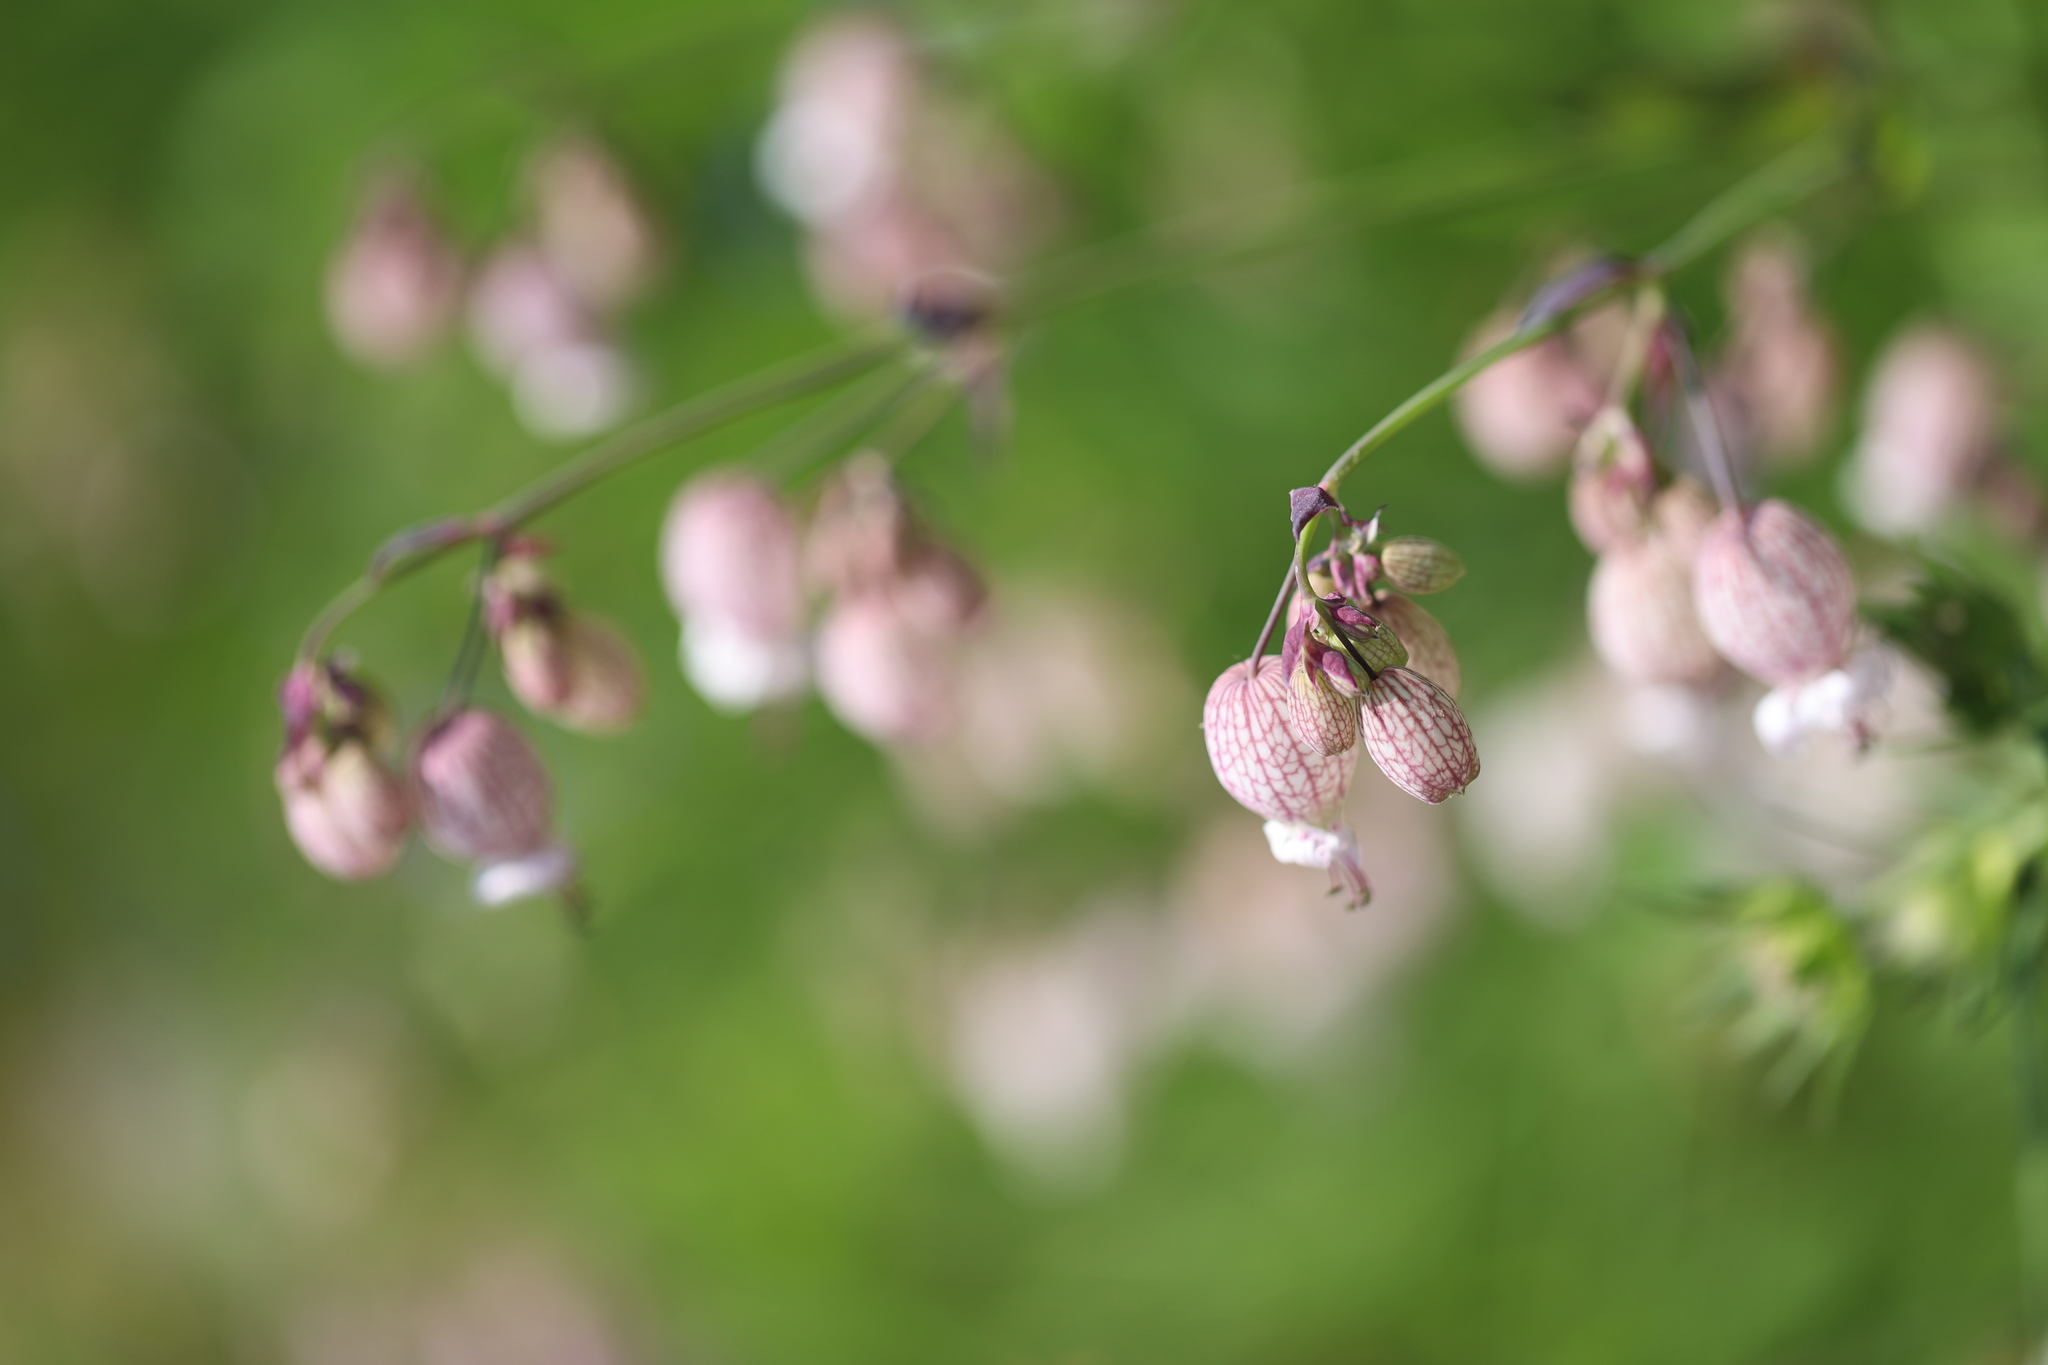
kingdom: Plantae
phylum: Tracheophyta
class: Magnoliopsida
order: Caryophyllales
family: Caryophyllaceae
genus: Silene
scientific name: Silene vulgaris
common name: Bladder campion
